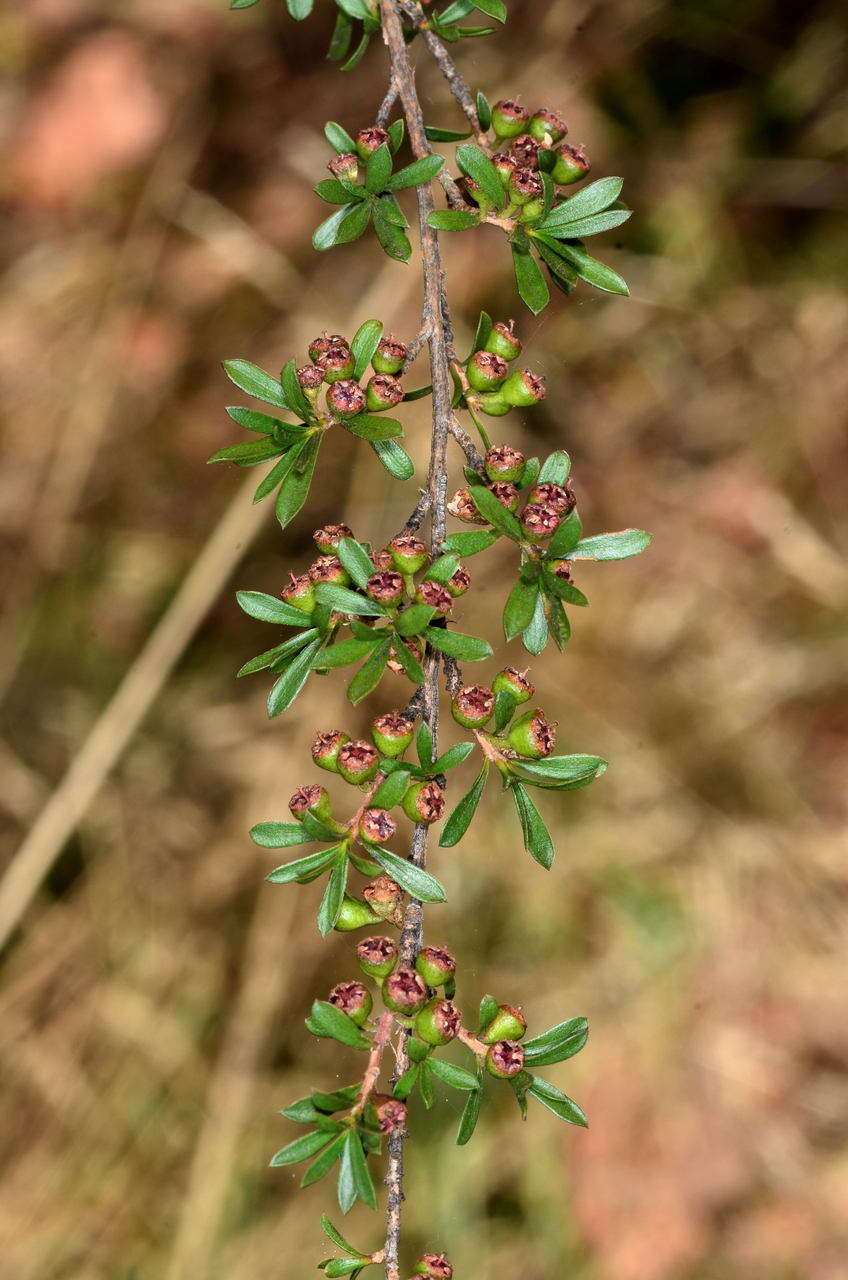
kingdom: Plantae
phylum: Tracheophyta
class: Magnoliopsida
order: Myrtales
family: Myrtaceae
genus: Kunzea
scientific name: Kunzea leptospermoides
